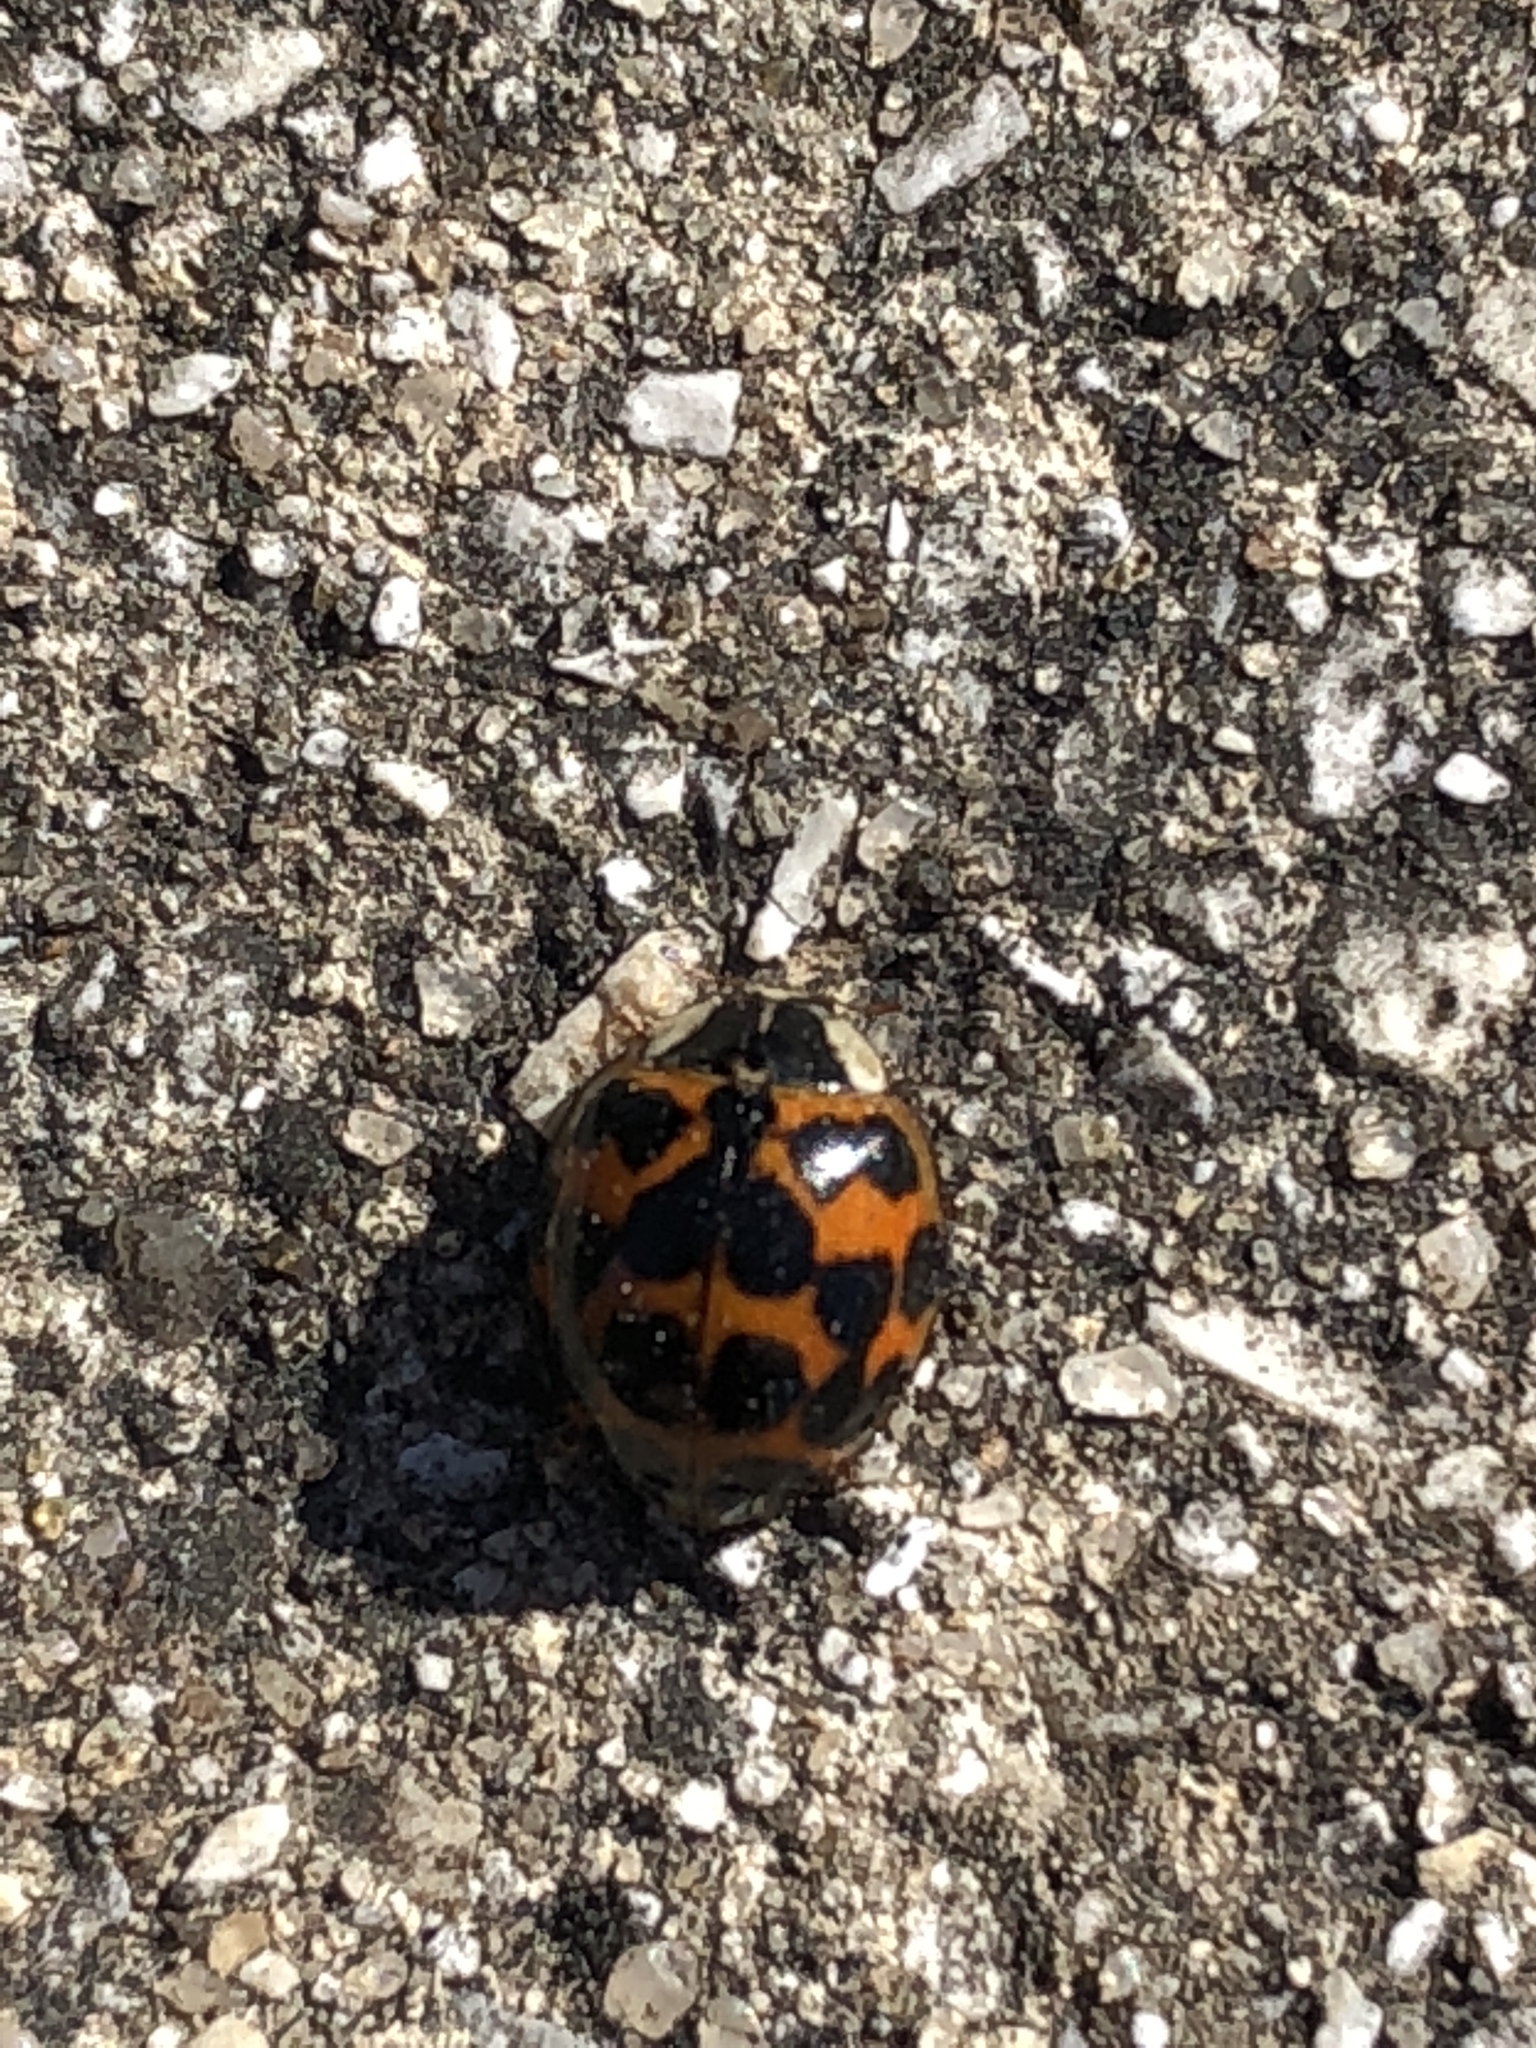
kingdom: Animalia
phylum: Arthropoda
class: Insecta
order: Coleoptera
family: Coccinellidae
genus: Harmonia
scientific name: Harmonia axyridis
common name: Harlequin ladybird
